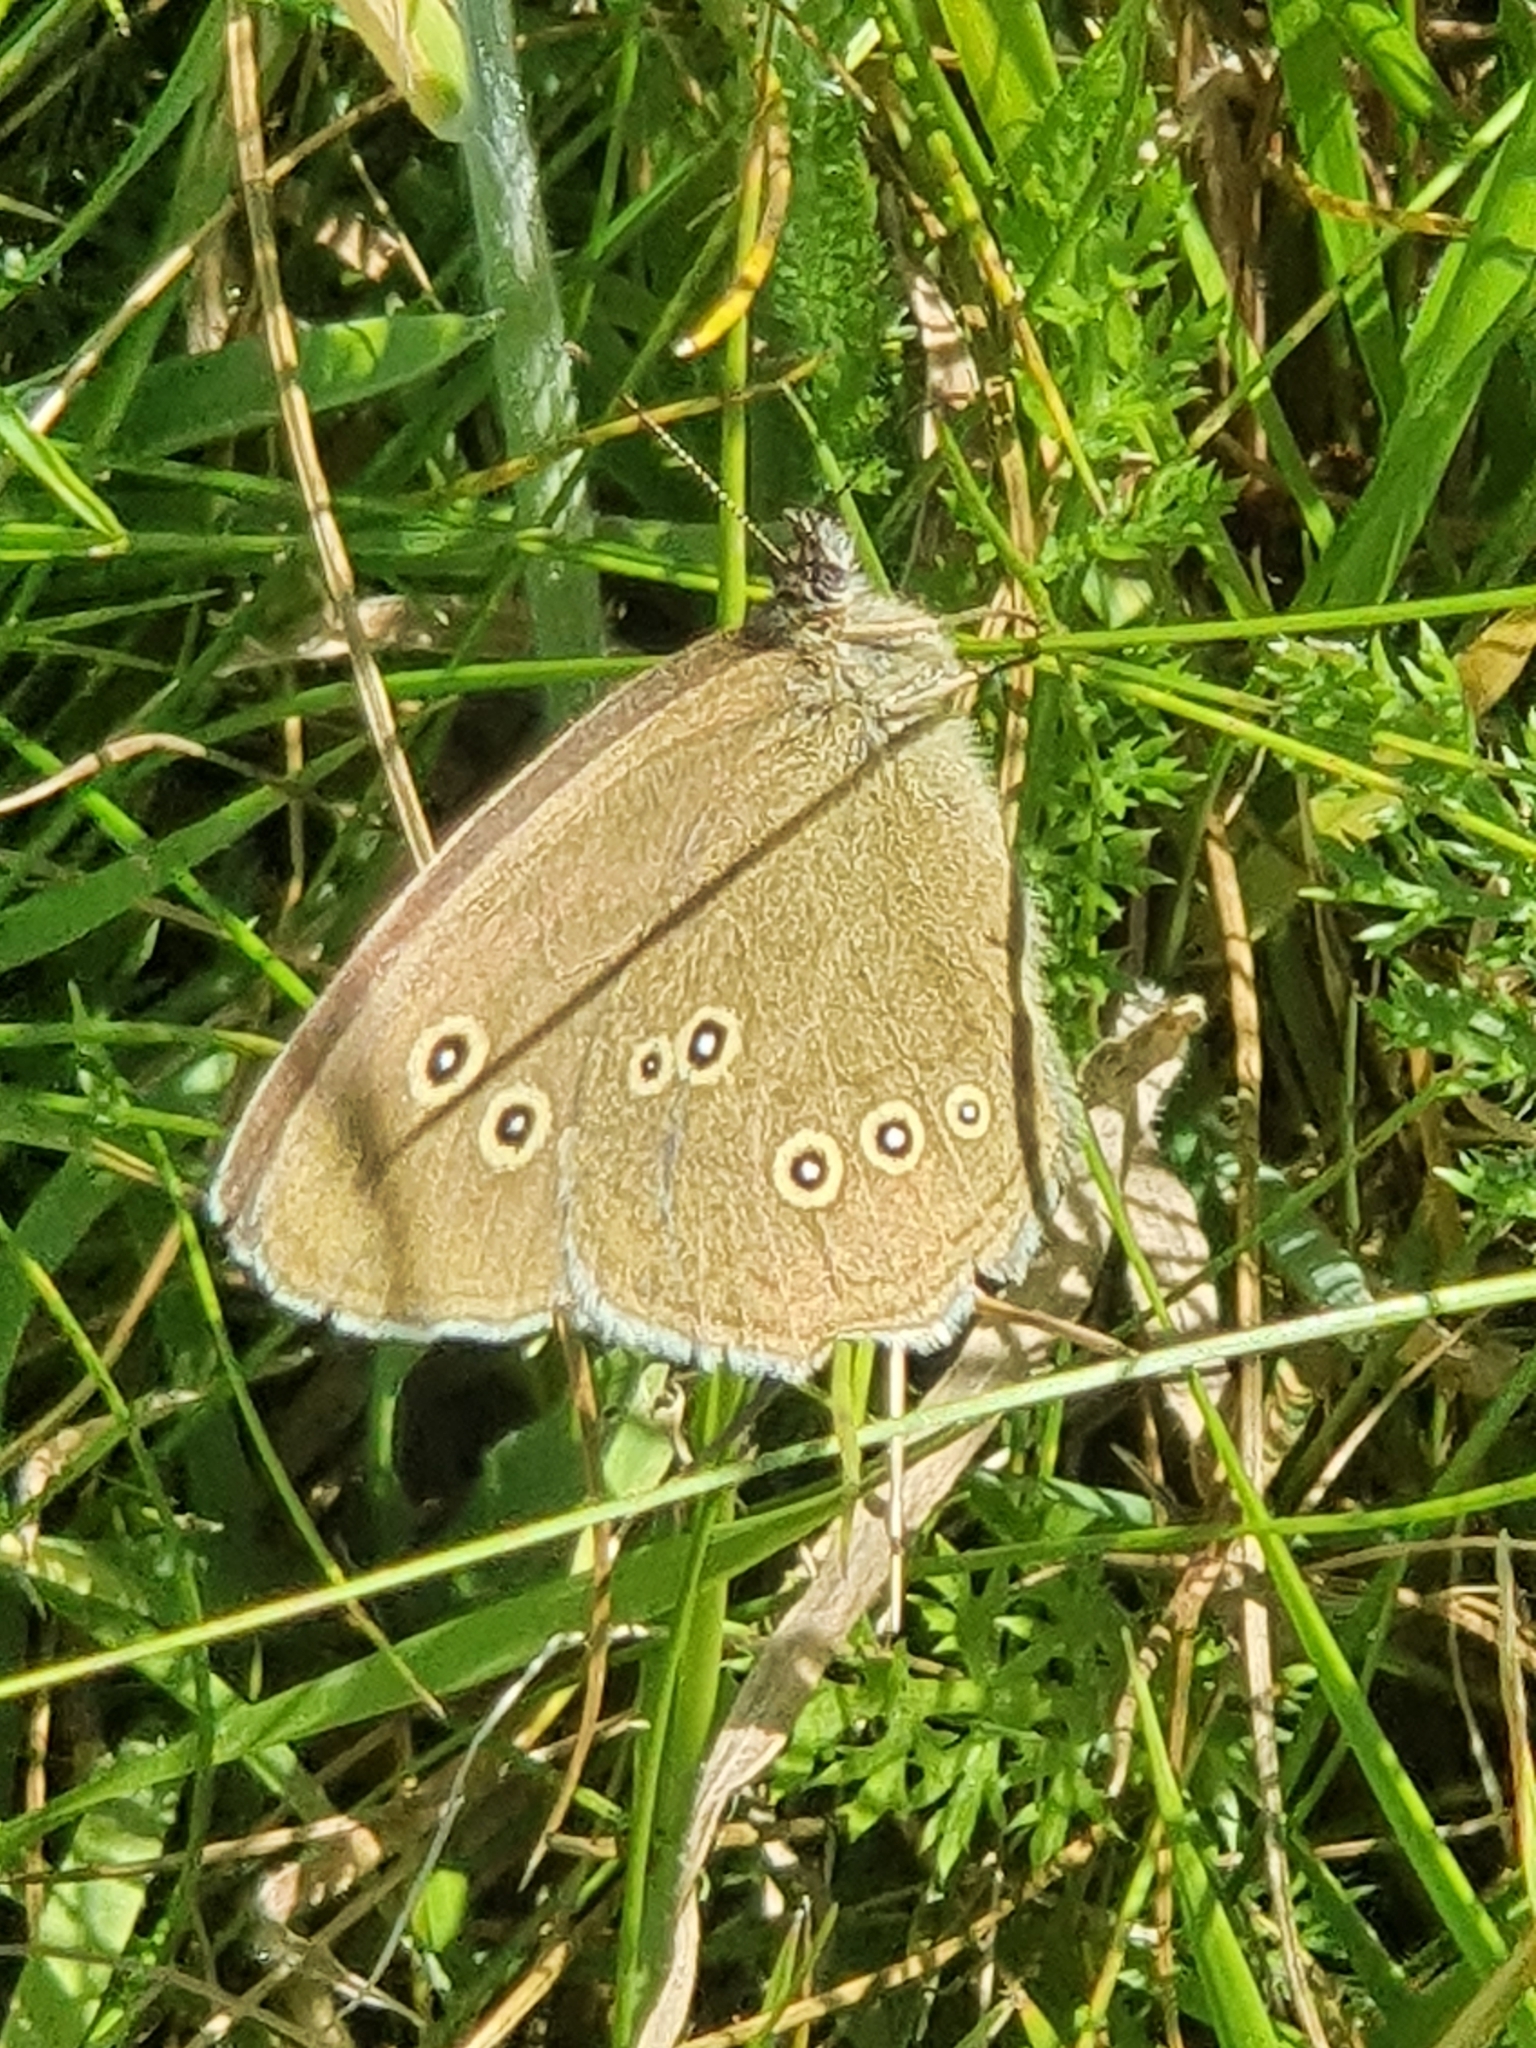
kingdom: Animalia
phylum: Arthropoda
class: Insecta
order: Lepidoptera
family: Nymphalidae
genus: Aphantopus
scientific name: Aphantopus hyperantus
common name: Ringlet
